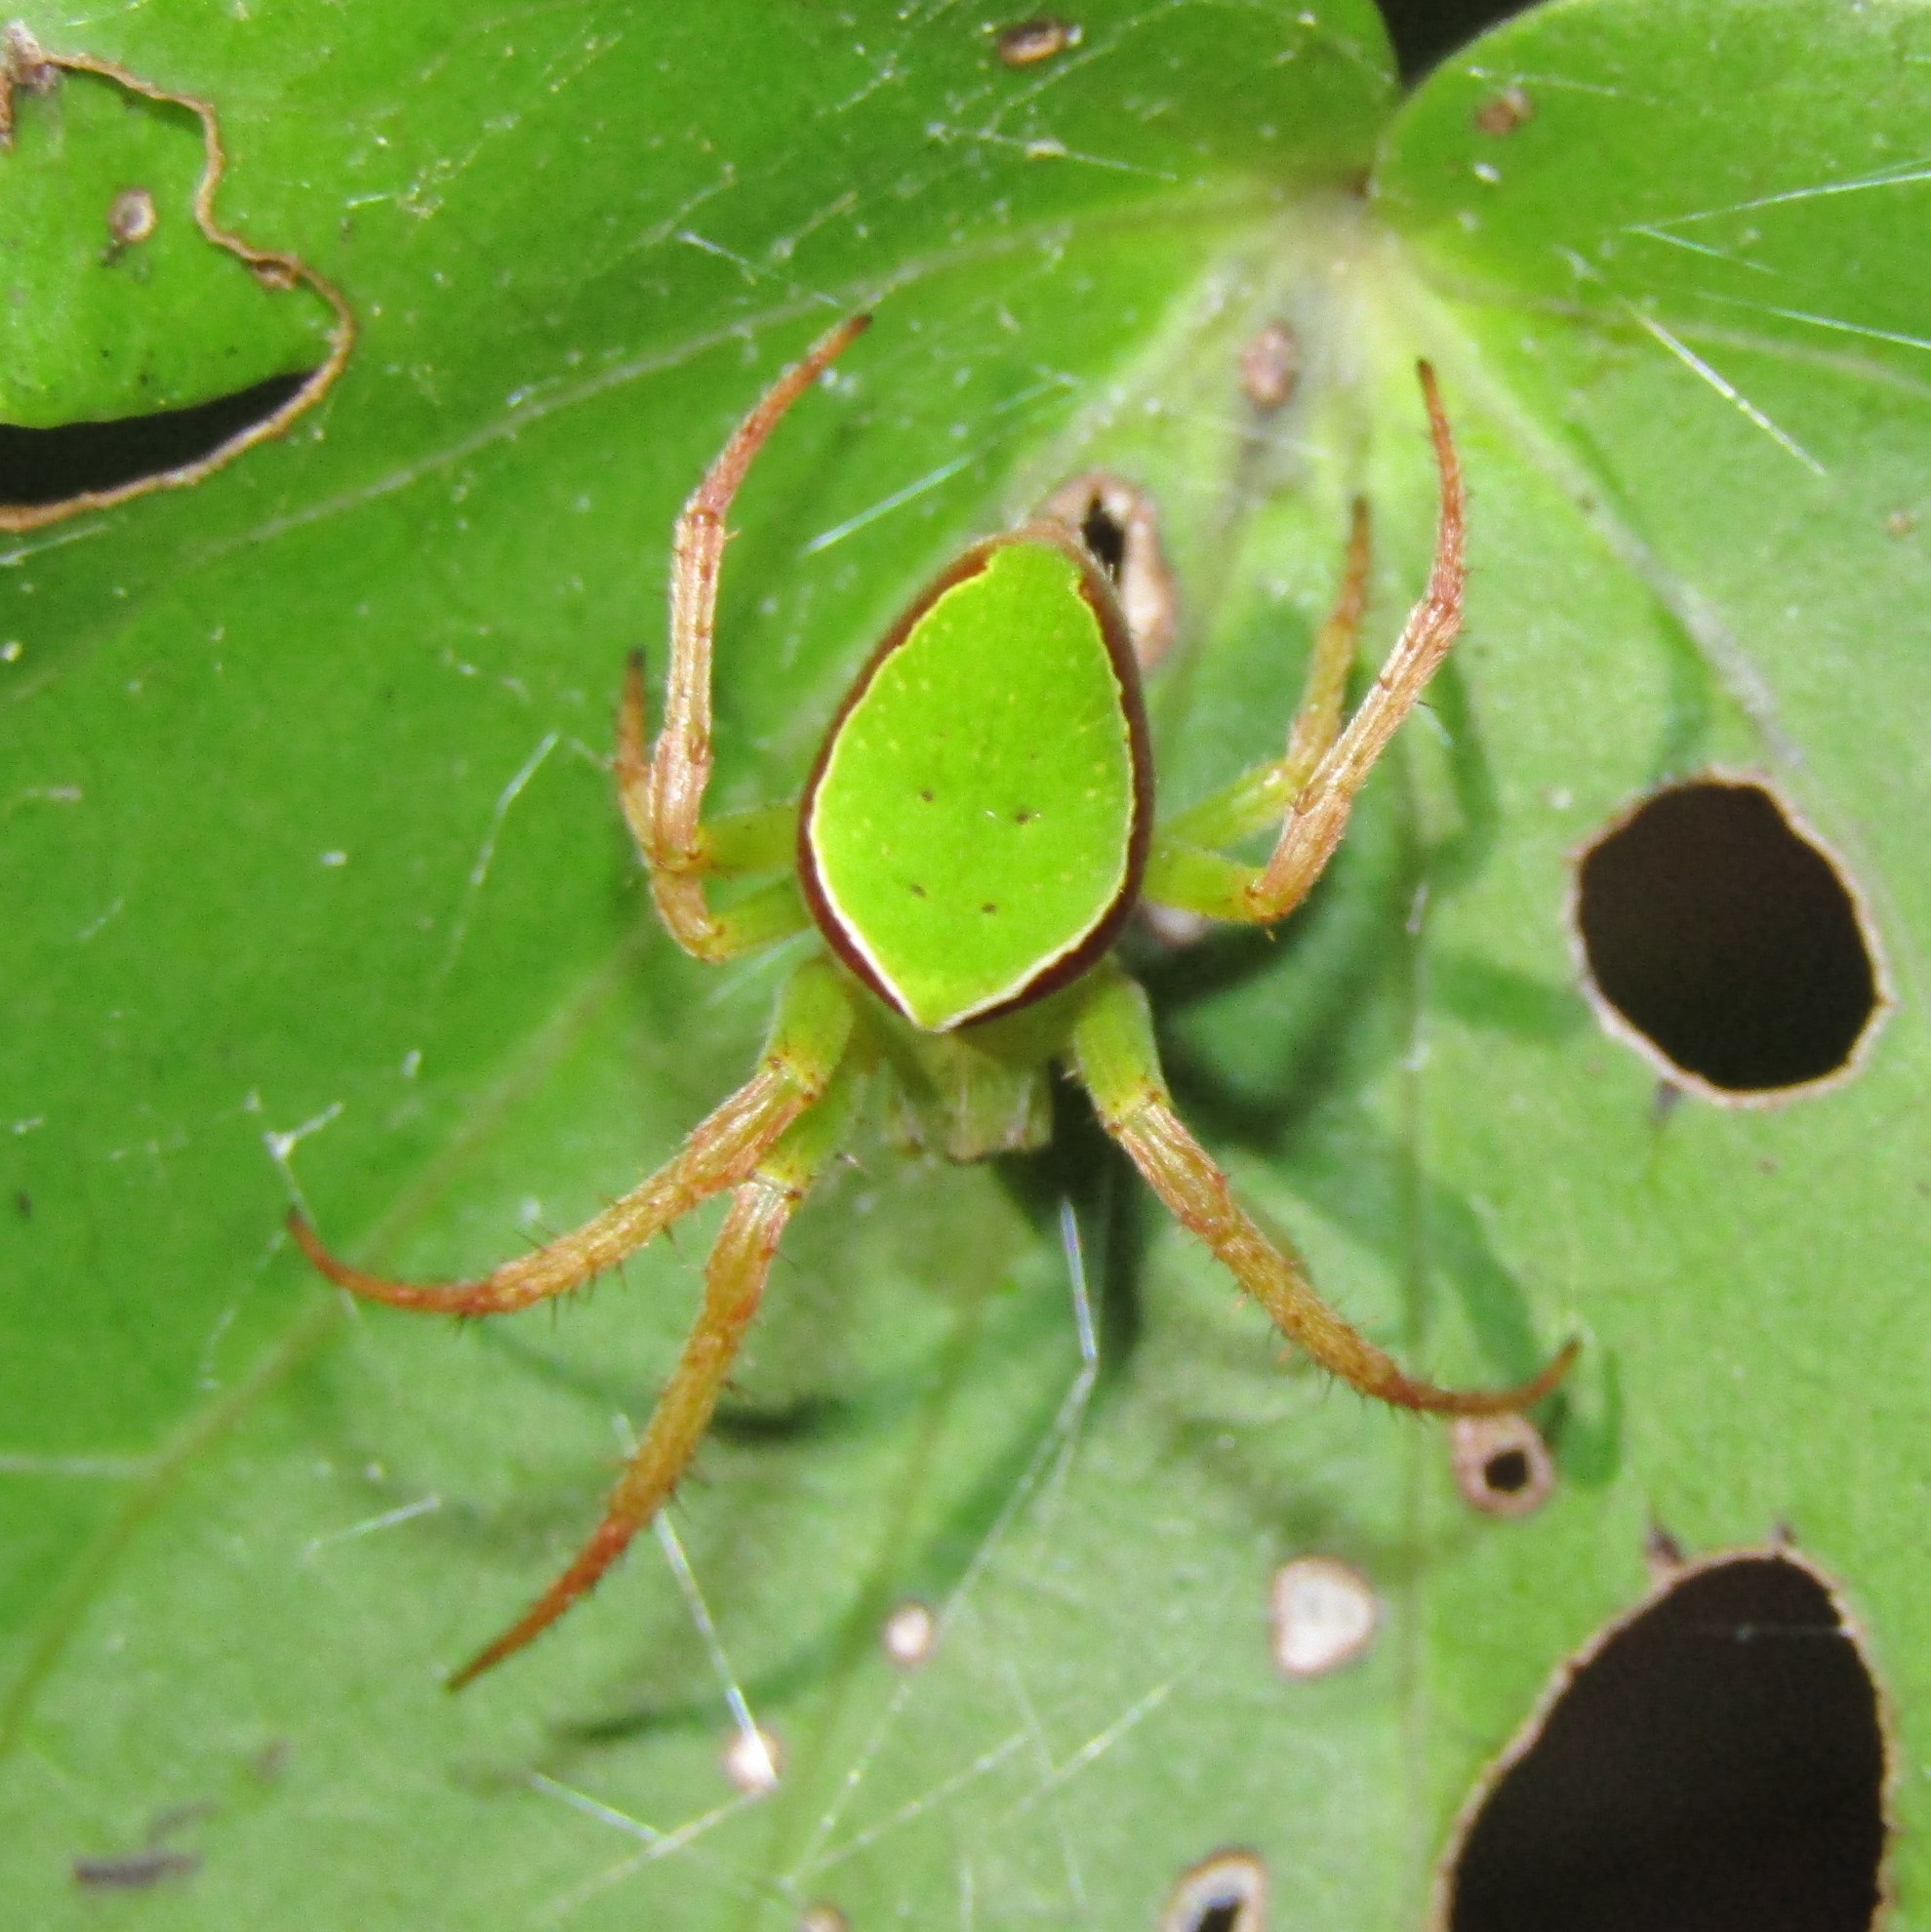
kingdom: Animalia
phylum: Arthropoda
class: Arachnida
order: Araneae
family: Araneidae
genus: Colaranea
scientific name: Colaranea viriditas
